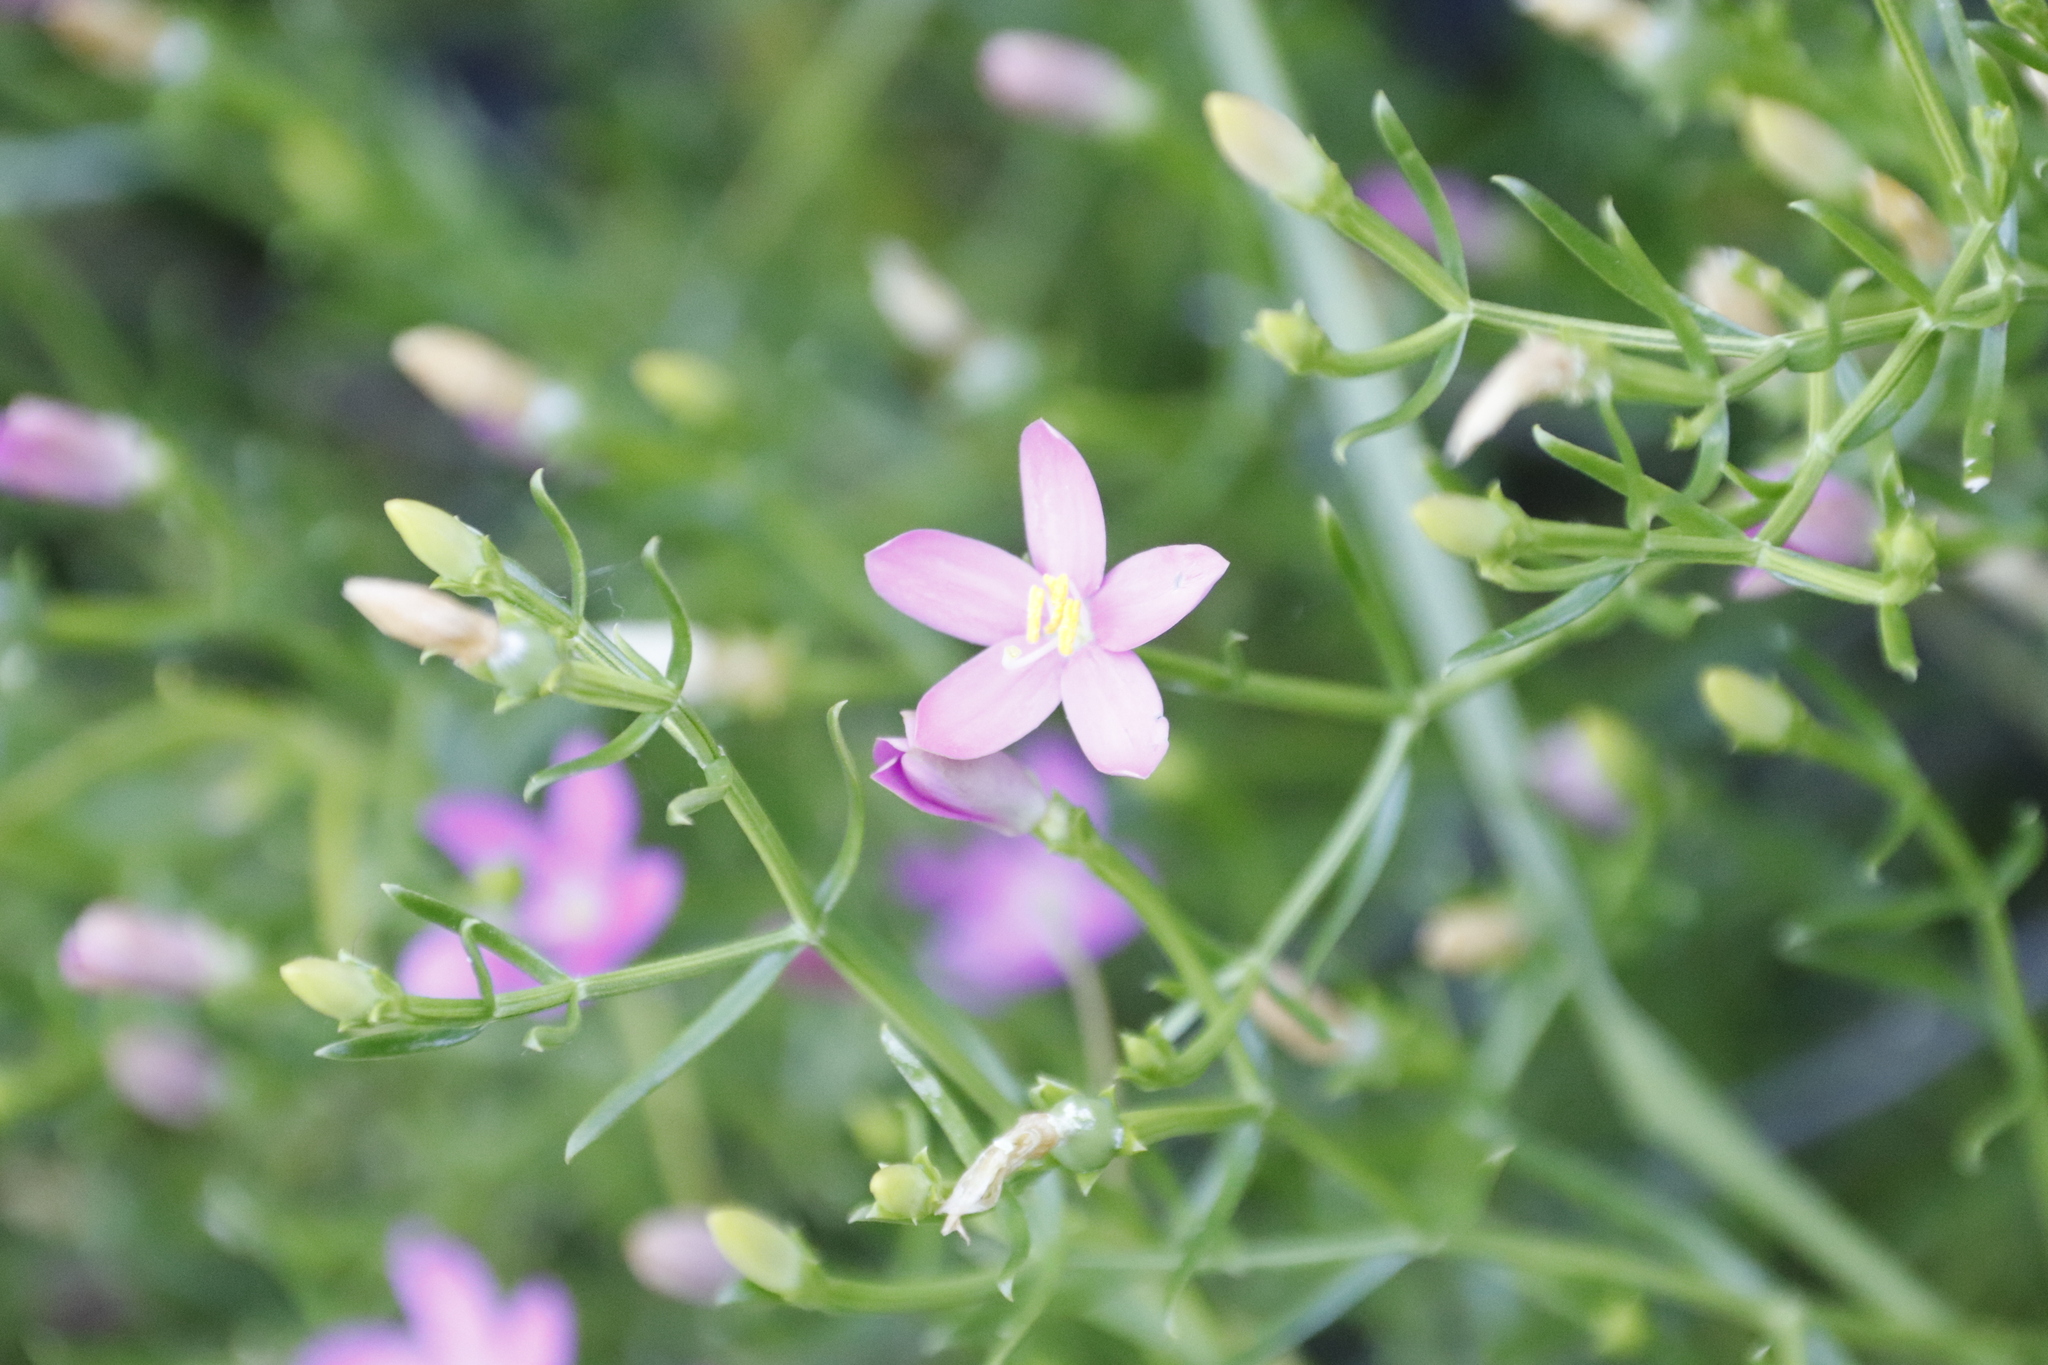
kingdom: Plantae
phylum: Tracheophyta
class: Magnoliopsida
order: Gentianales
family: Gentianaceae
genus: Chironia
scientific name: Chironia baccifera
